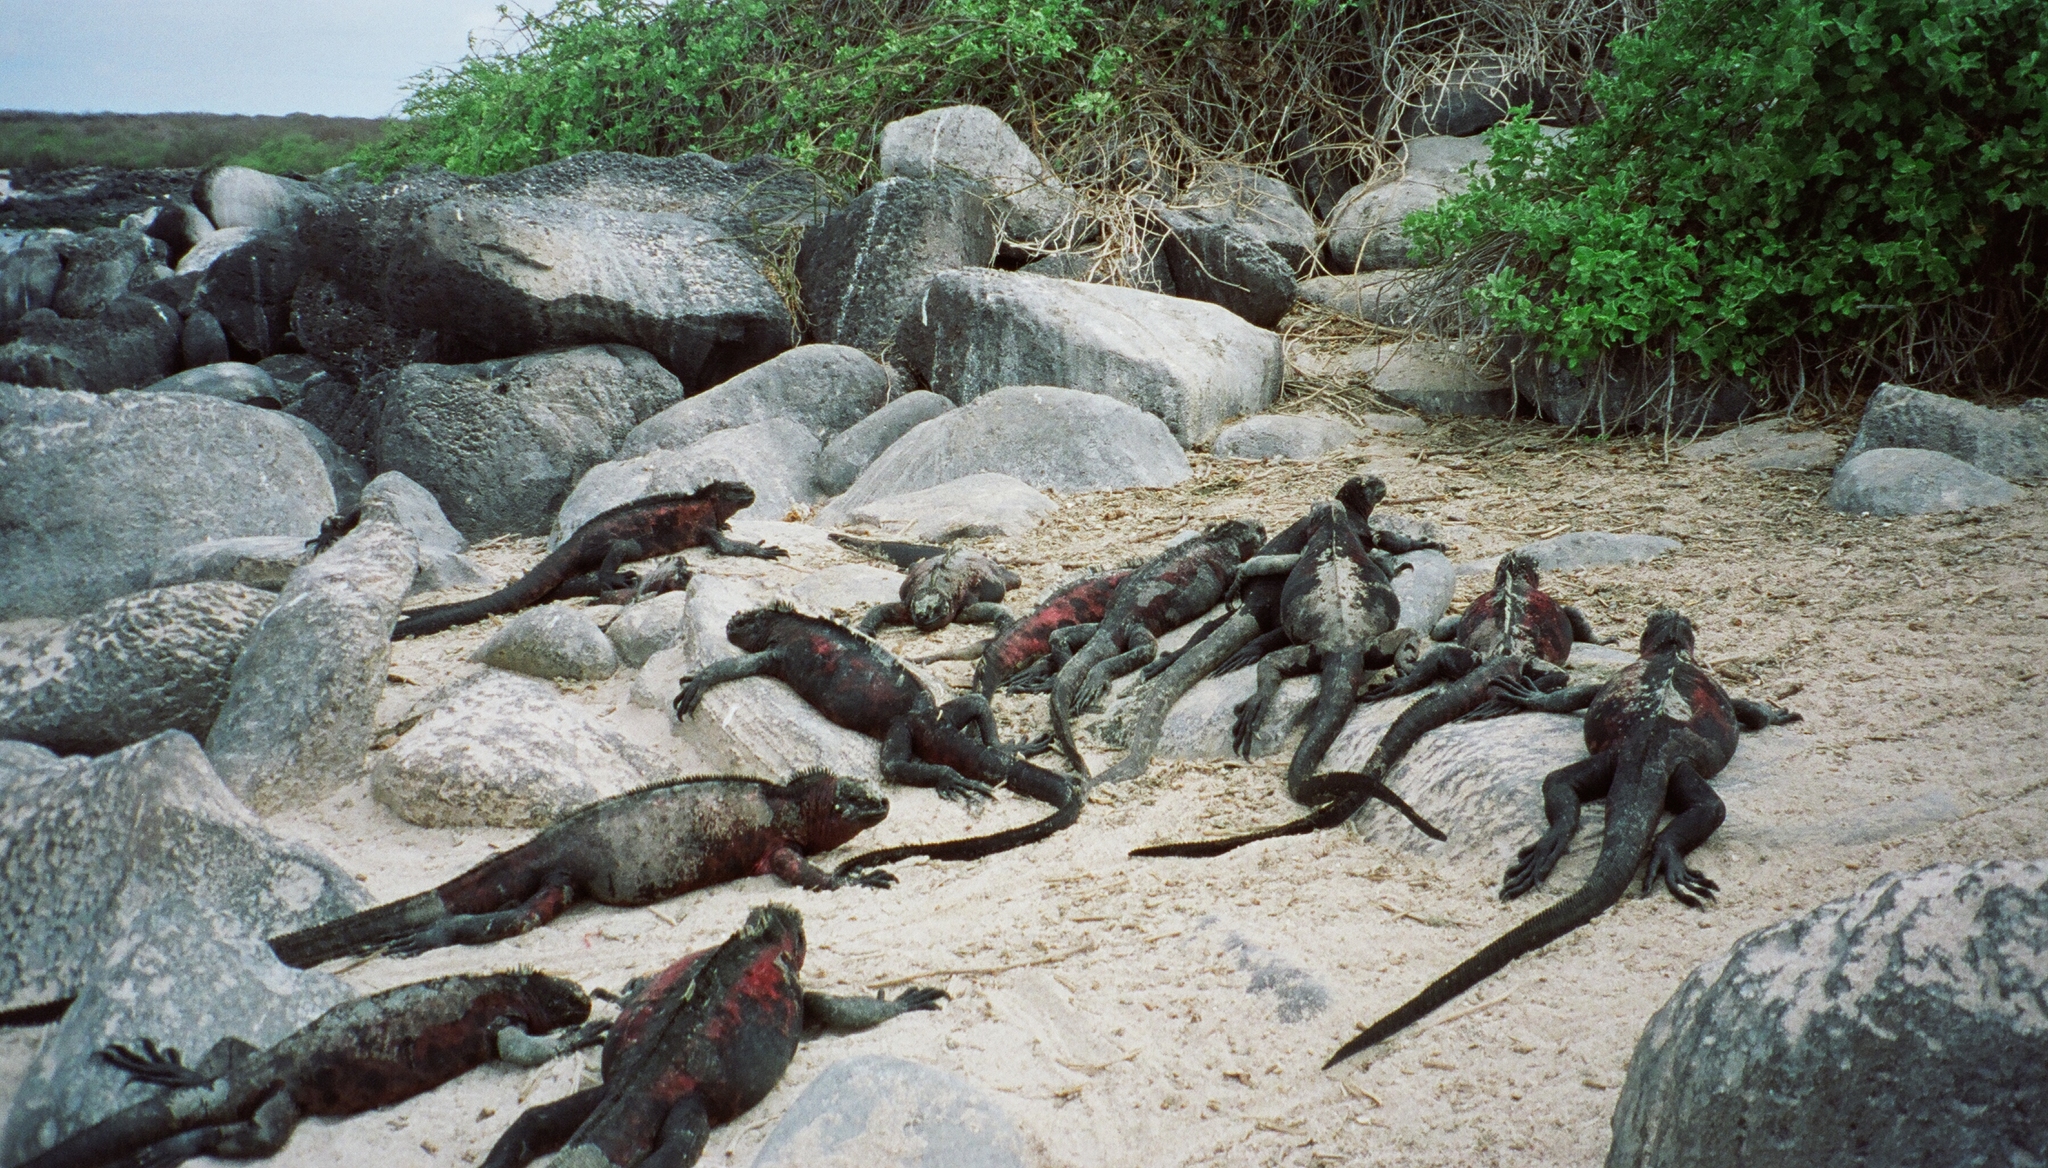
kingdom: Animalia
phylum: Chordata
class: Squamata
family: Iguanidae
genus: Amblyrhynchus
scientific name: Amblyrhynchus cristatus
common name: Marine iguana
